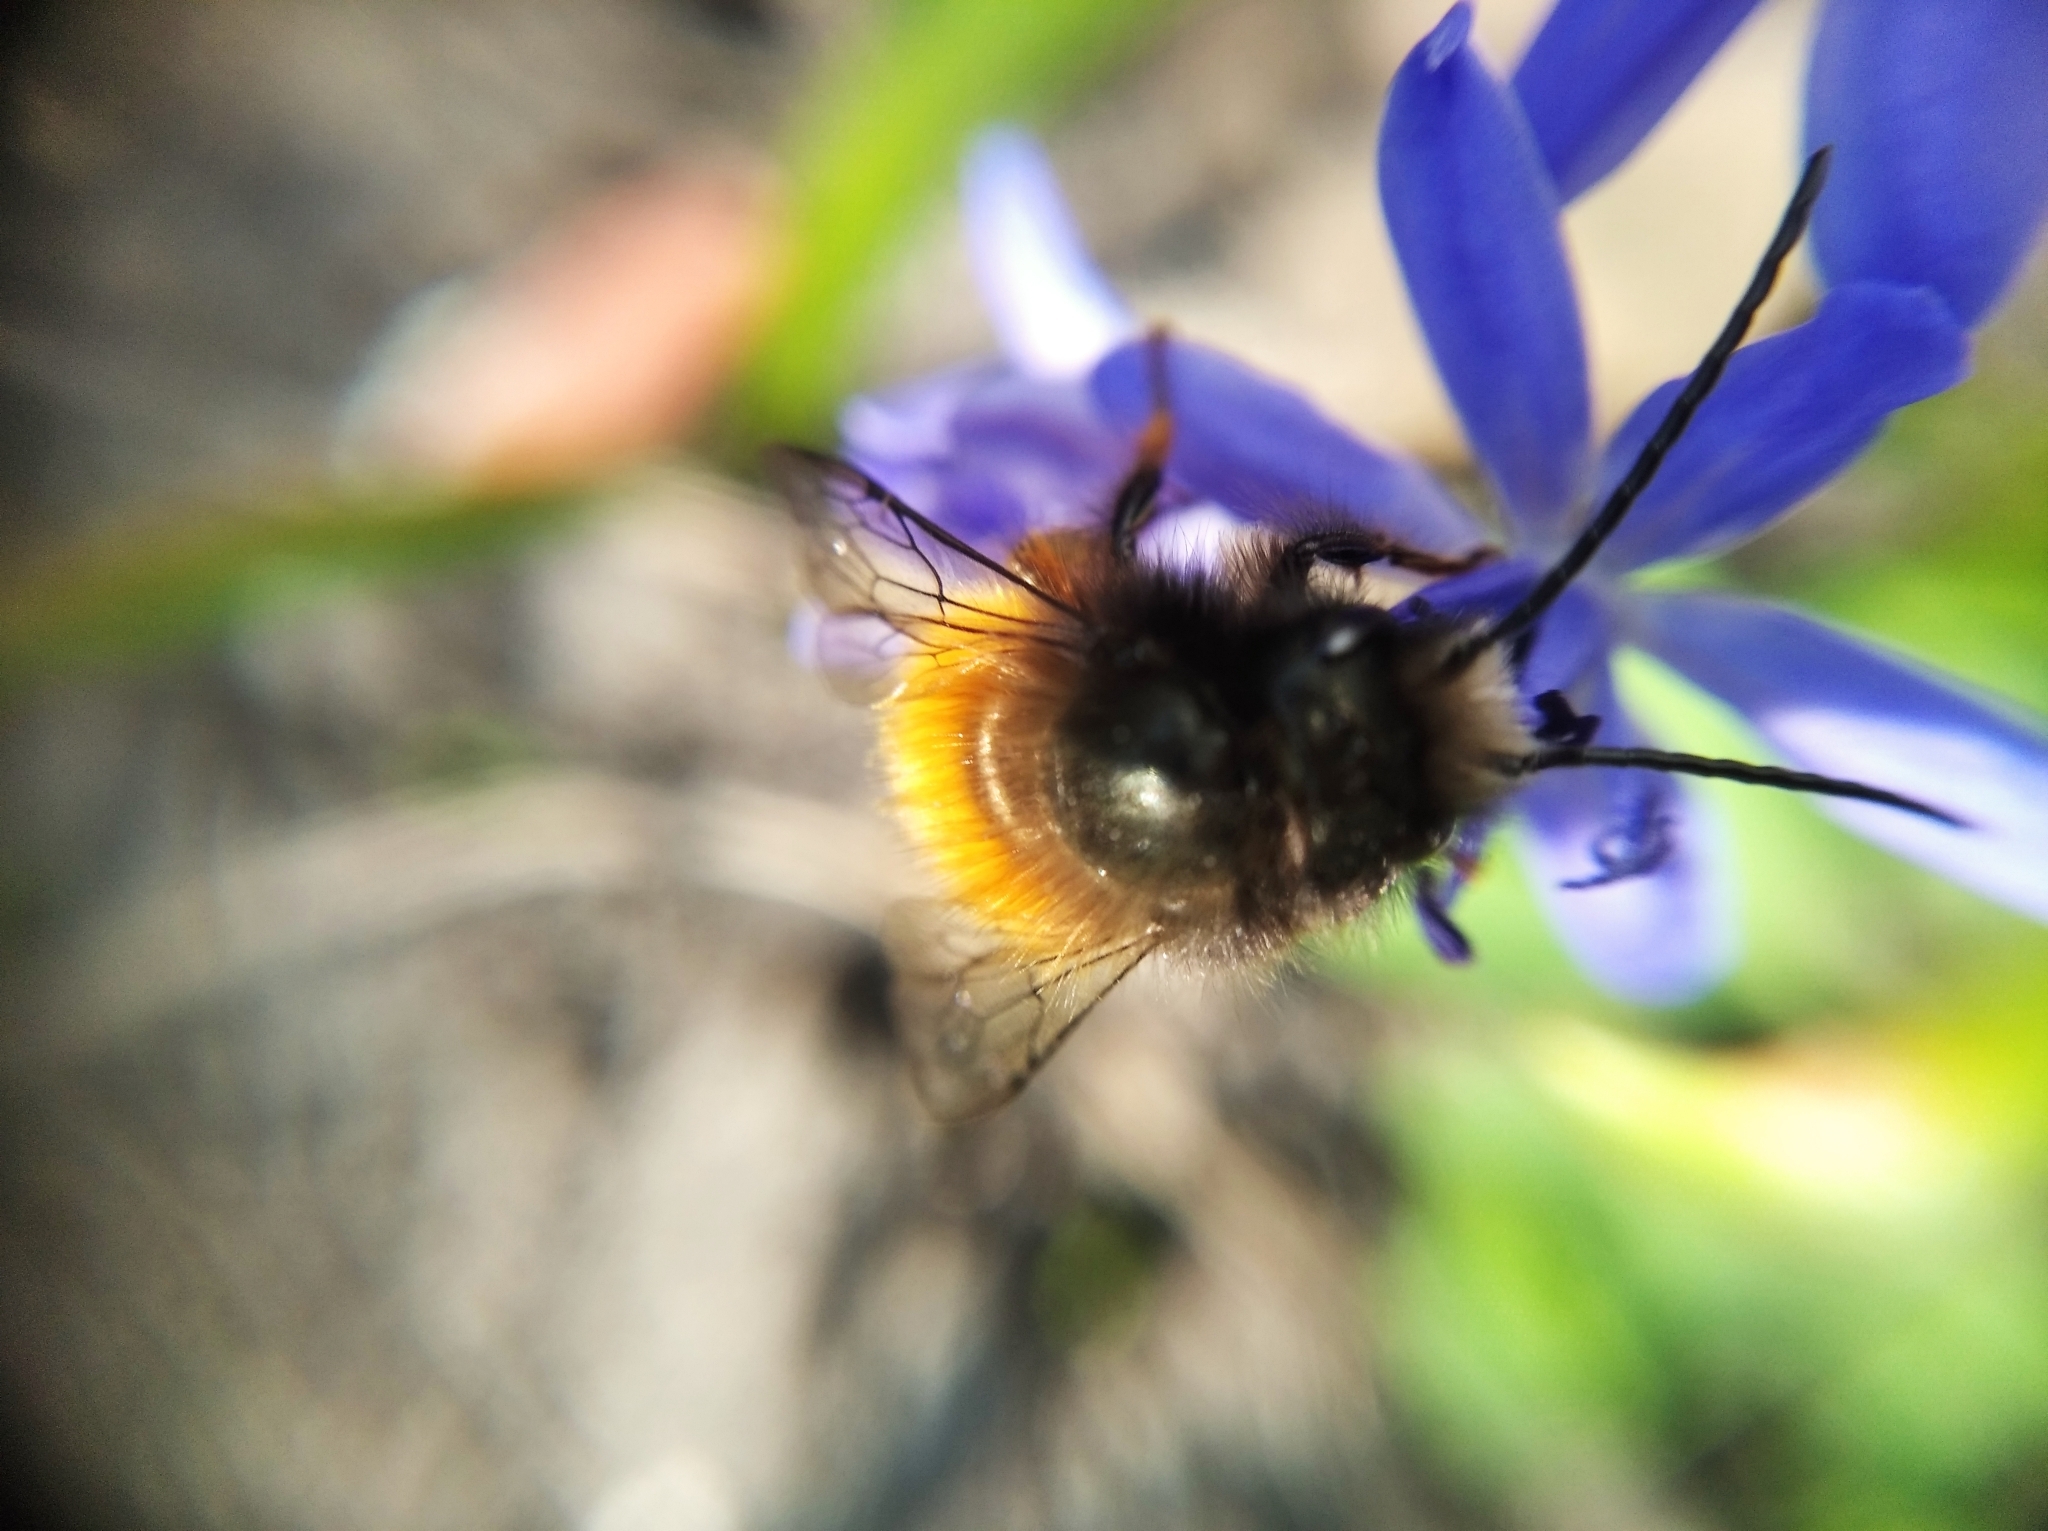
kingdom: Animalia
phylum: Arthropoda
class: Insecta
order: Hymenoptera
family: Megachilidae
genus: Osmia
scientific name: Osmia cornuta
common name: Mason bee
